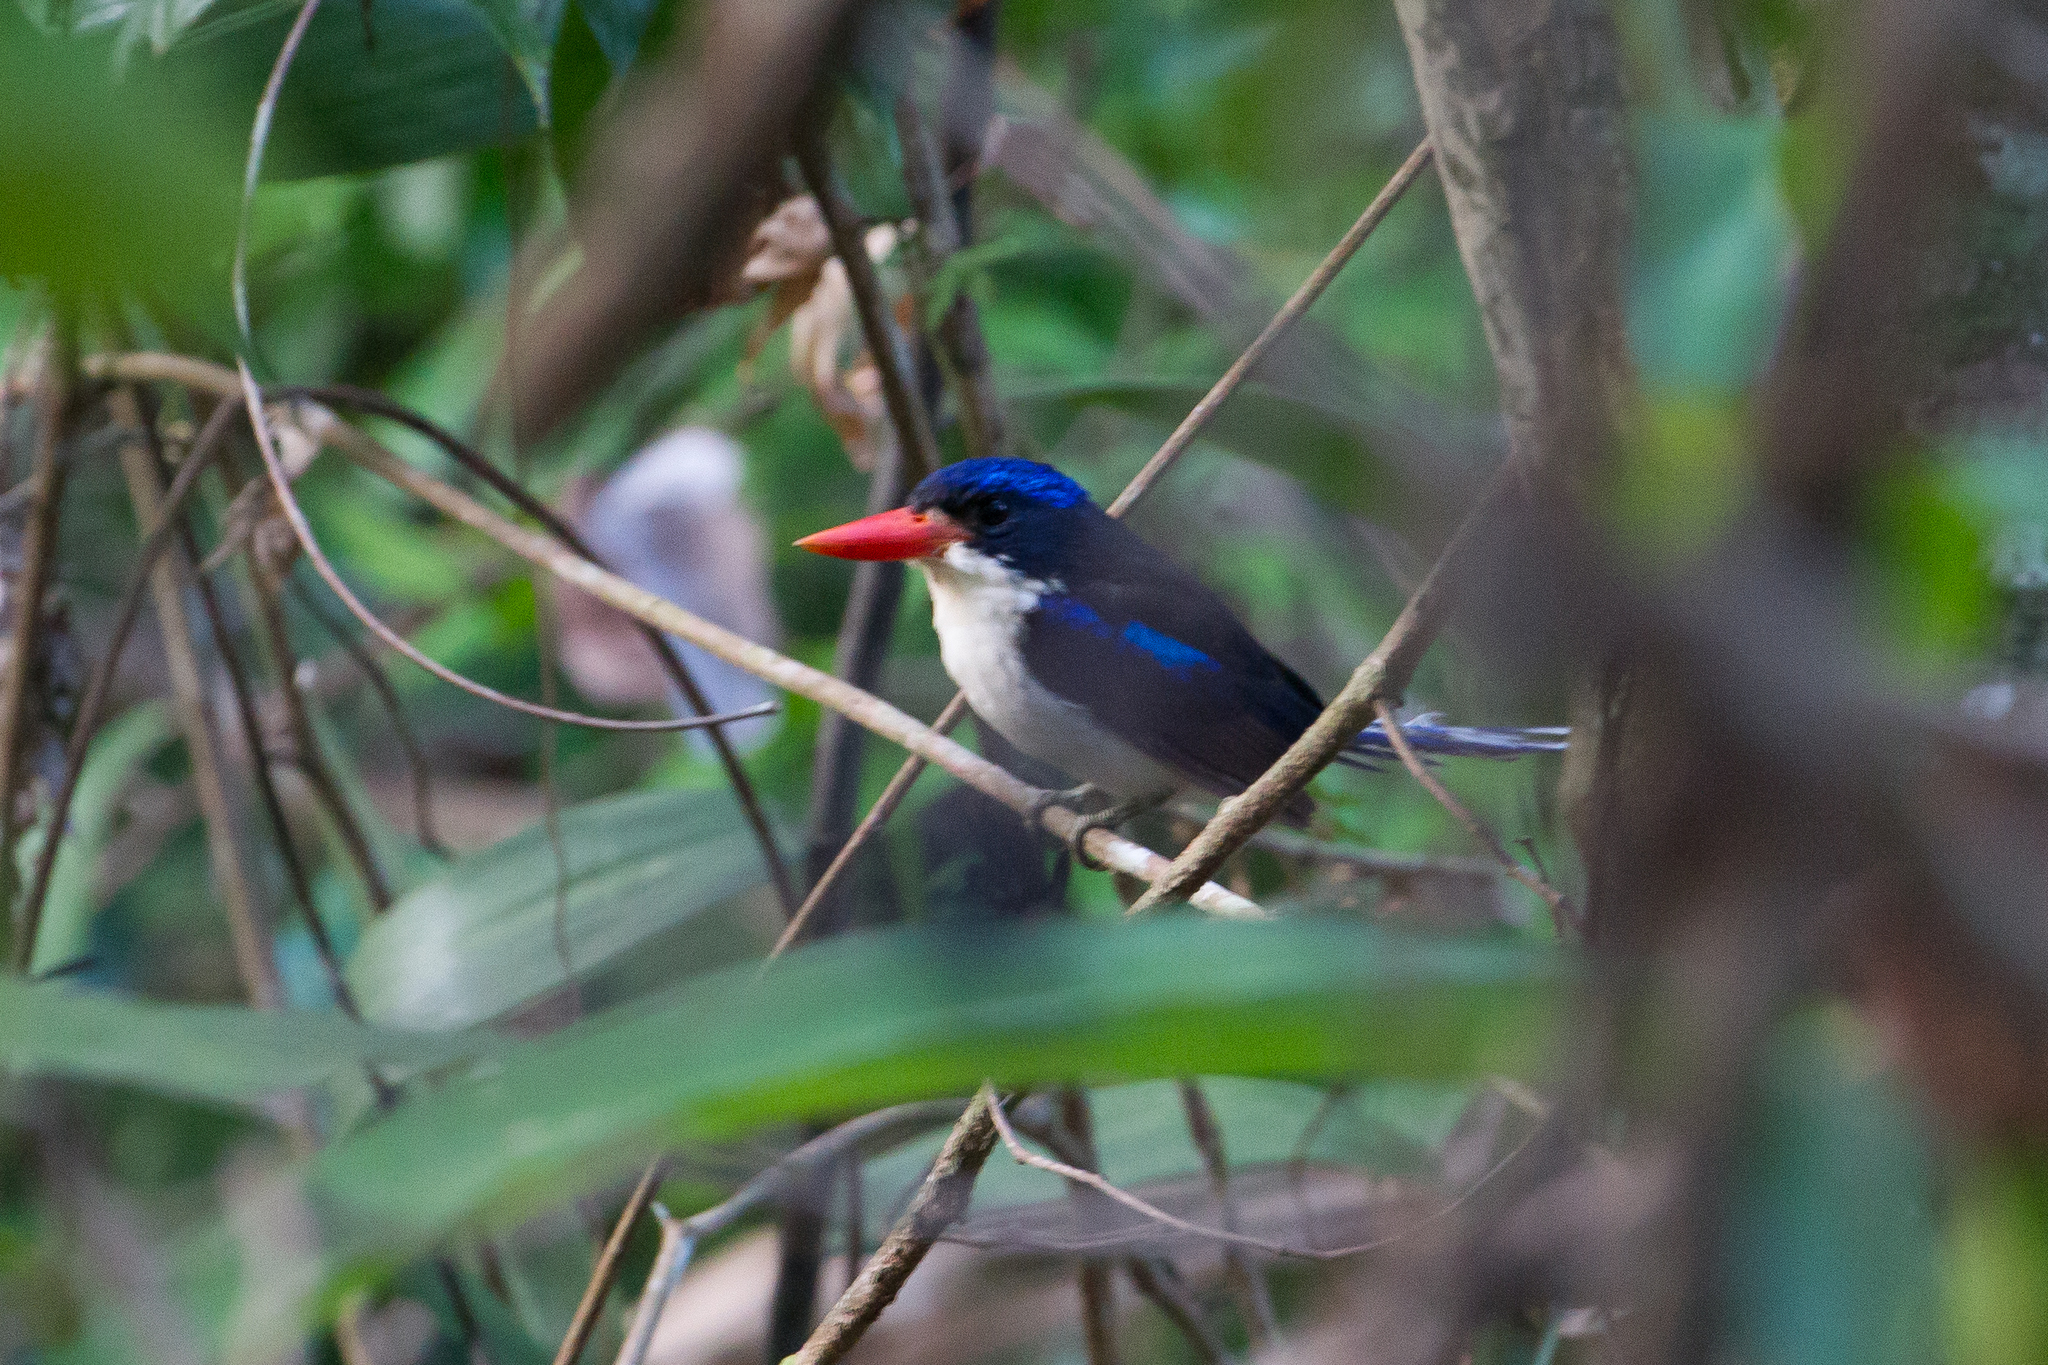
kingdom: Animalia
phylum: Chordata
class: Aves
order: Coraciiformes
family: Alcedinidae
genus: Tanysiptera
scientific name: Tanysiptera galatea
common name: Common paradise-kingfisher
